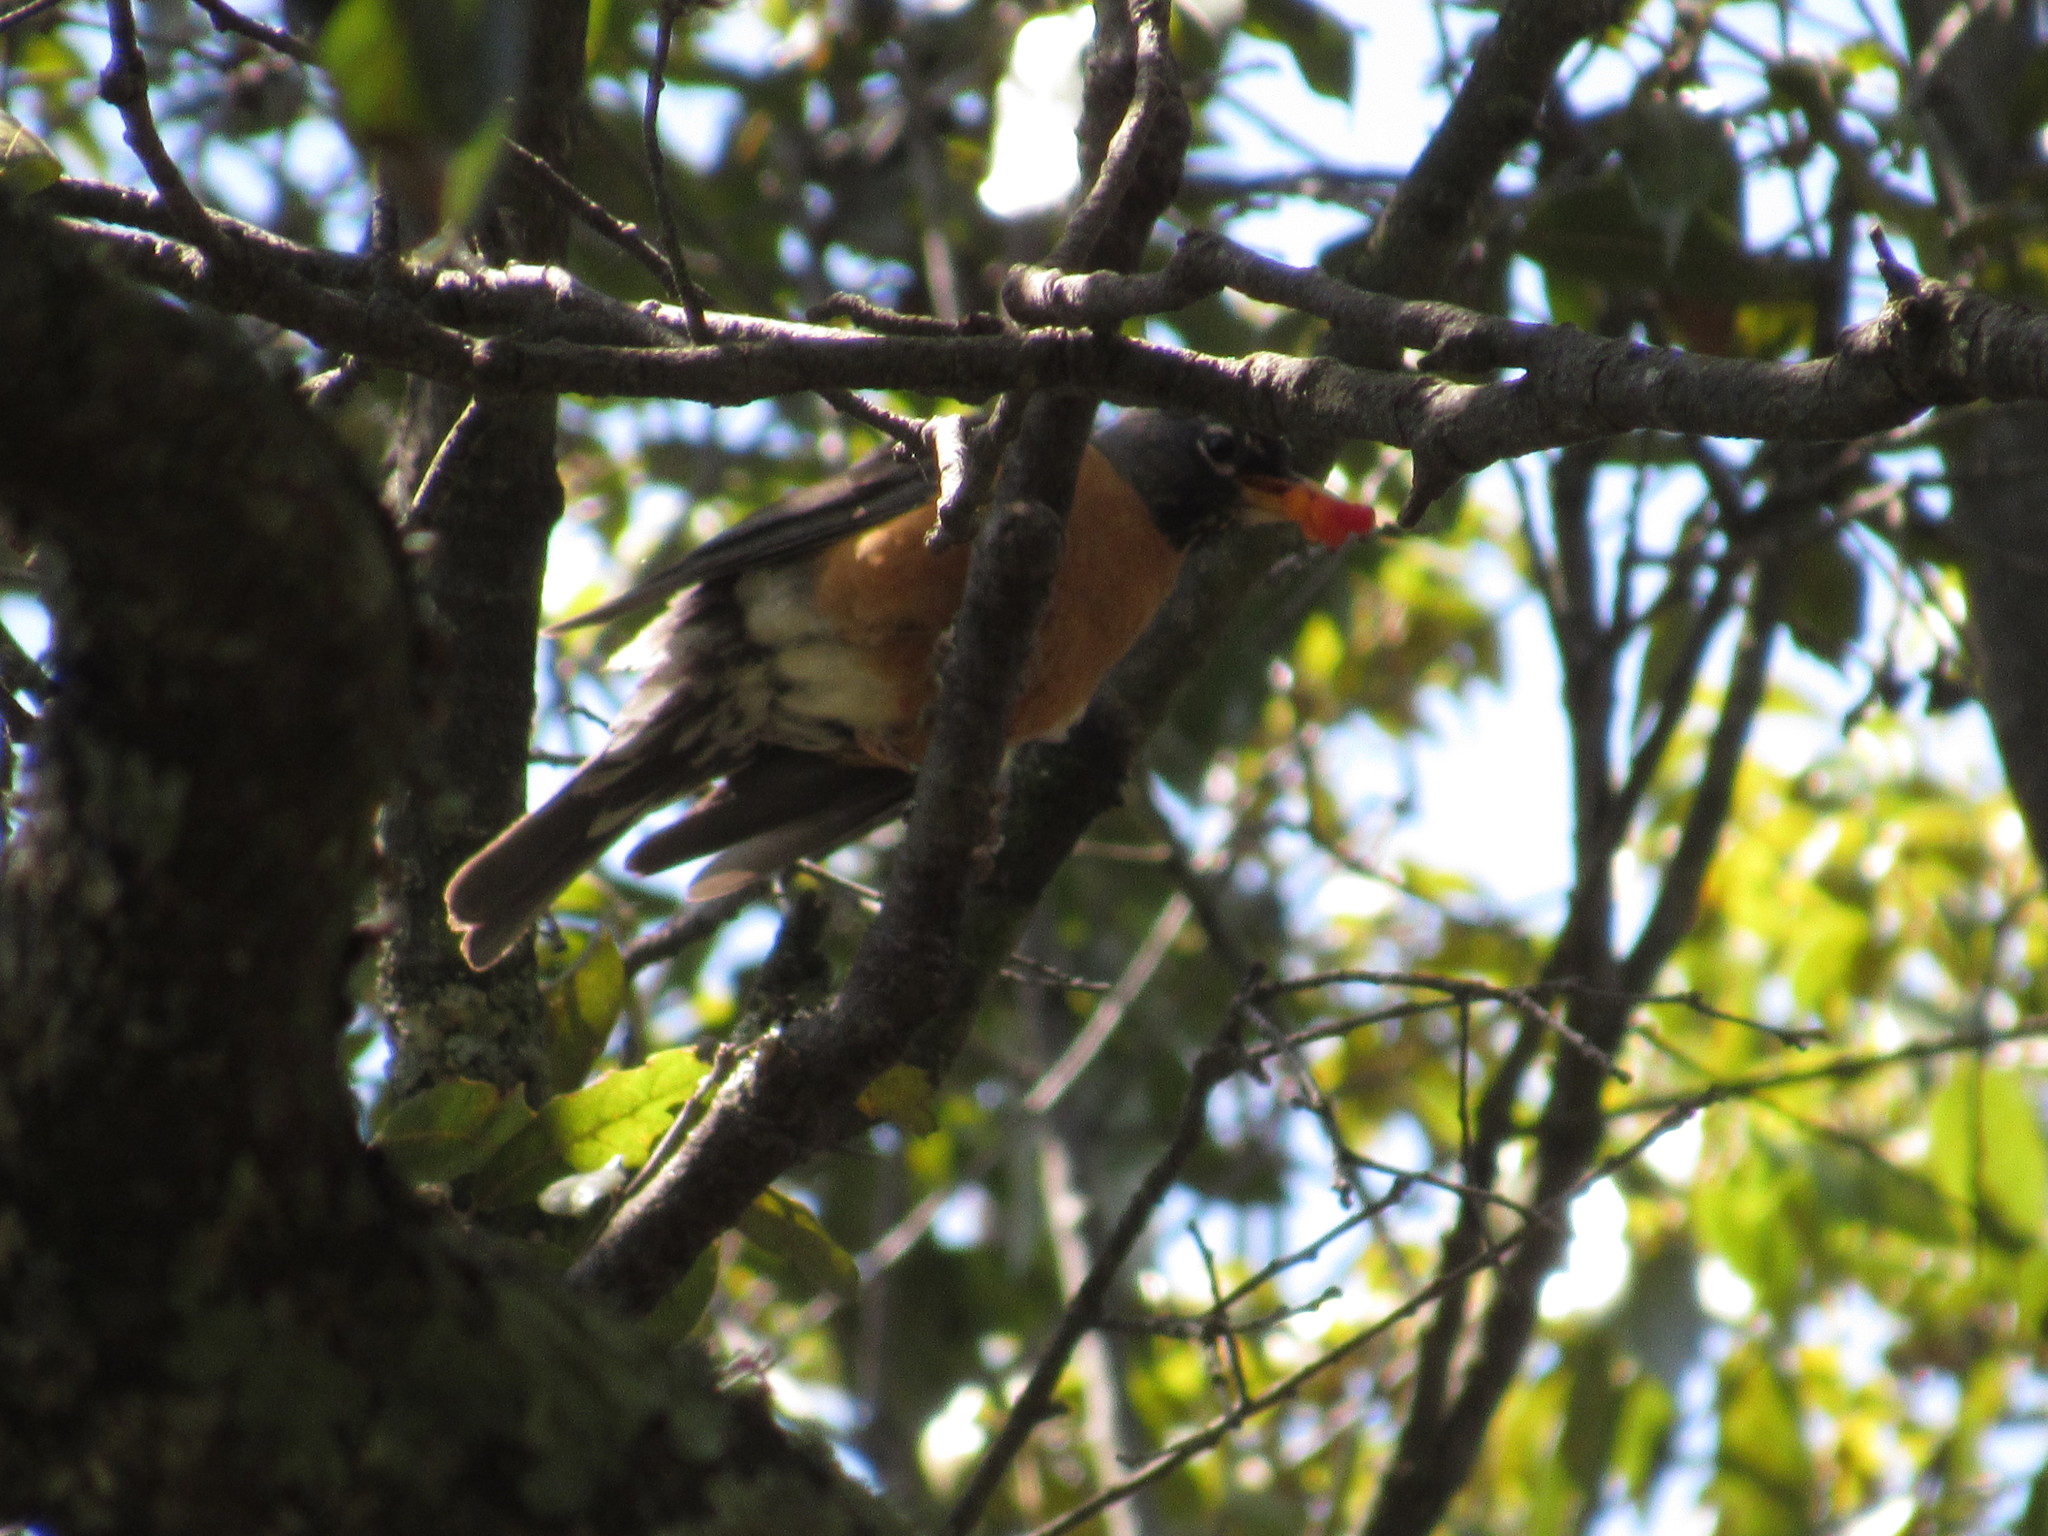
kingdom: Animalia
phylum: Chordata
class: Aves
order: Passeriformes
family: Turdidae
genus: Turdus
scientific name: Turdus migratorius
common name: American robin
